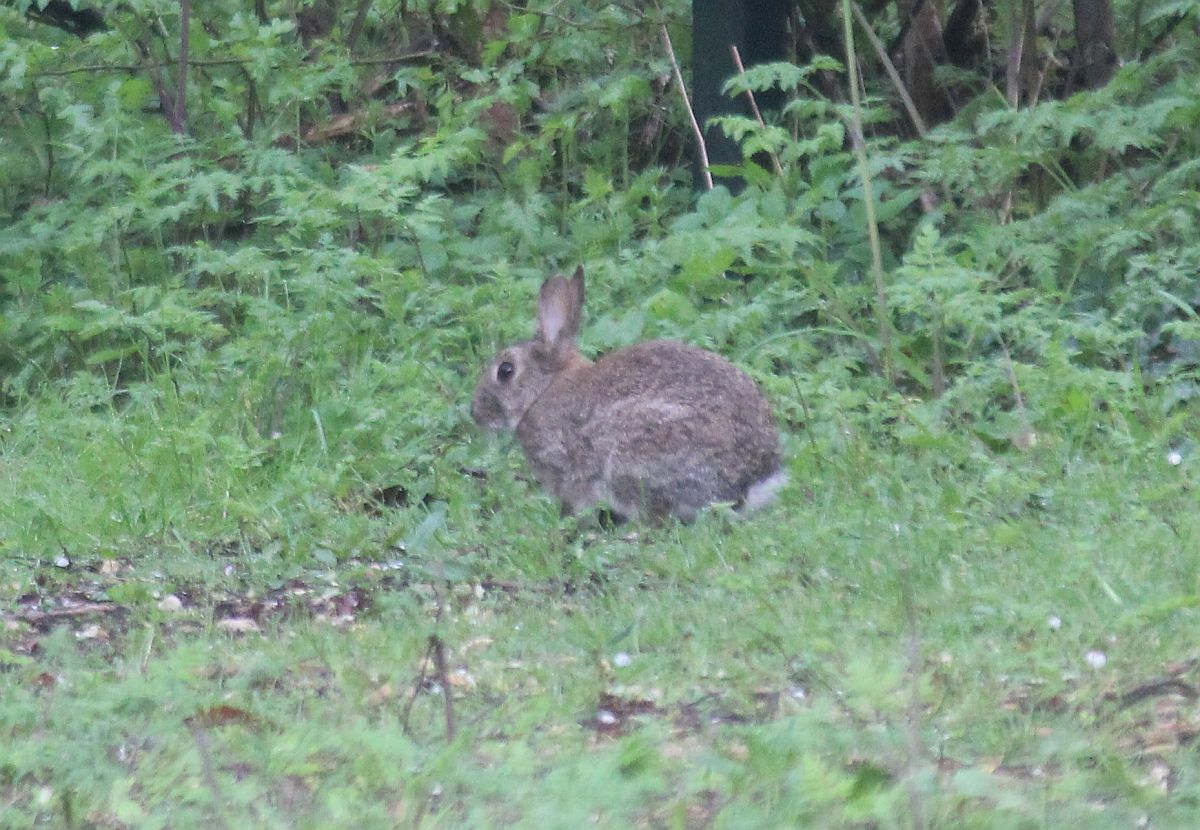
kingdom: Animalia
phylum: Chordata
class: Mammalia
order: Lagomorpha
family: Leporidae
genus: Oryctolagus
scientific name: Oryctolagus cuniculus
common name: European rabbit
